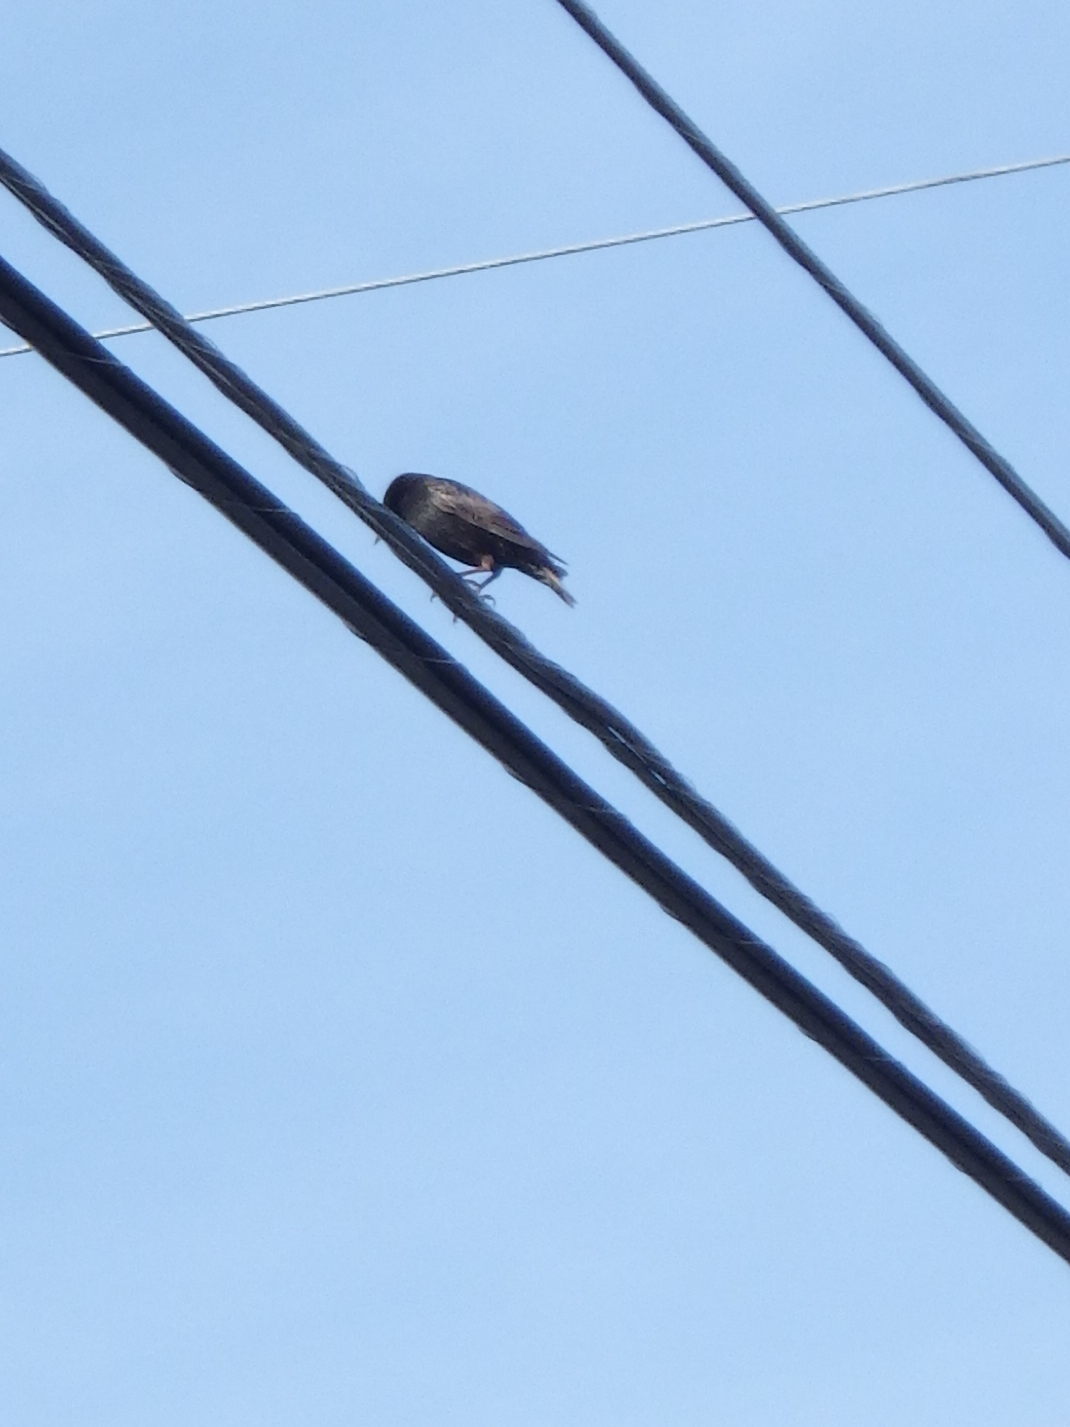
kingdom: Animalia
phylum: Chordata
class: Aves
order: Passeriformes
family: Sturnidae
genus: Sturnus
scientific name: Sturnus vulgaris
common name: Common starling
